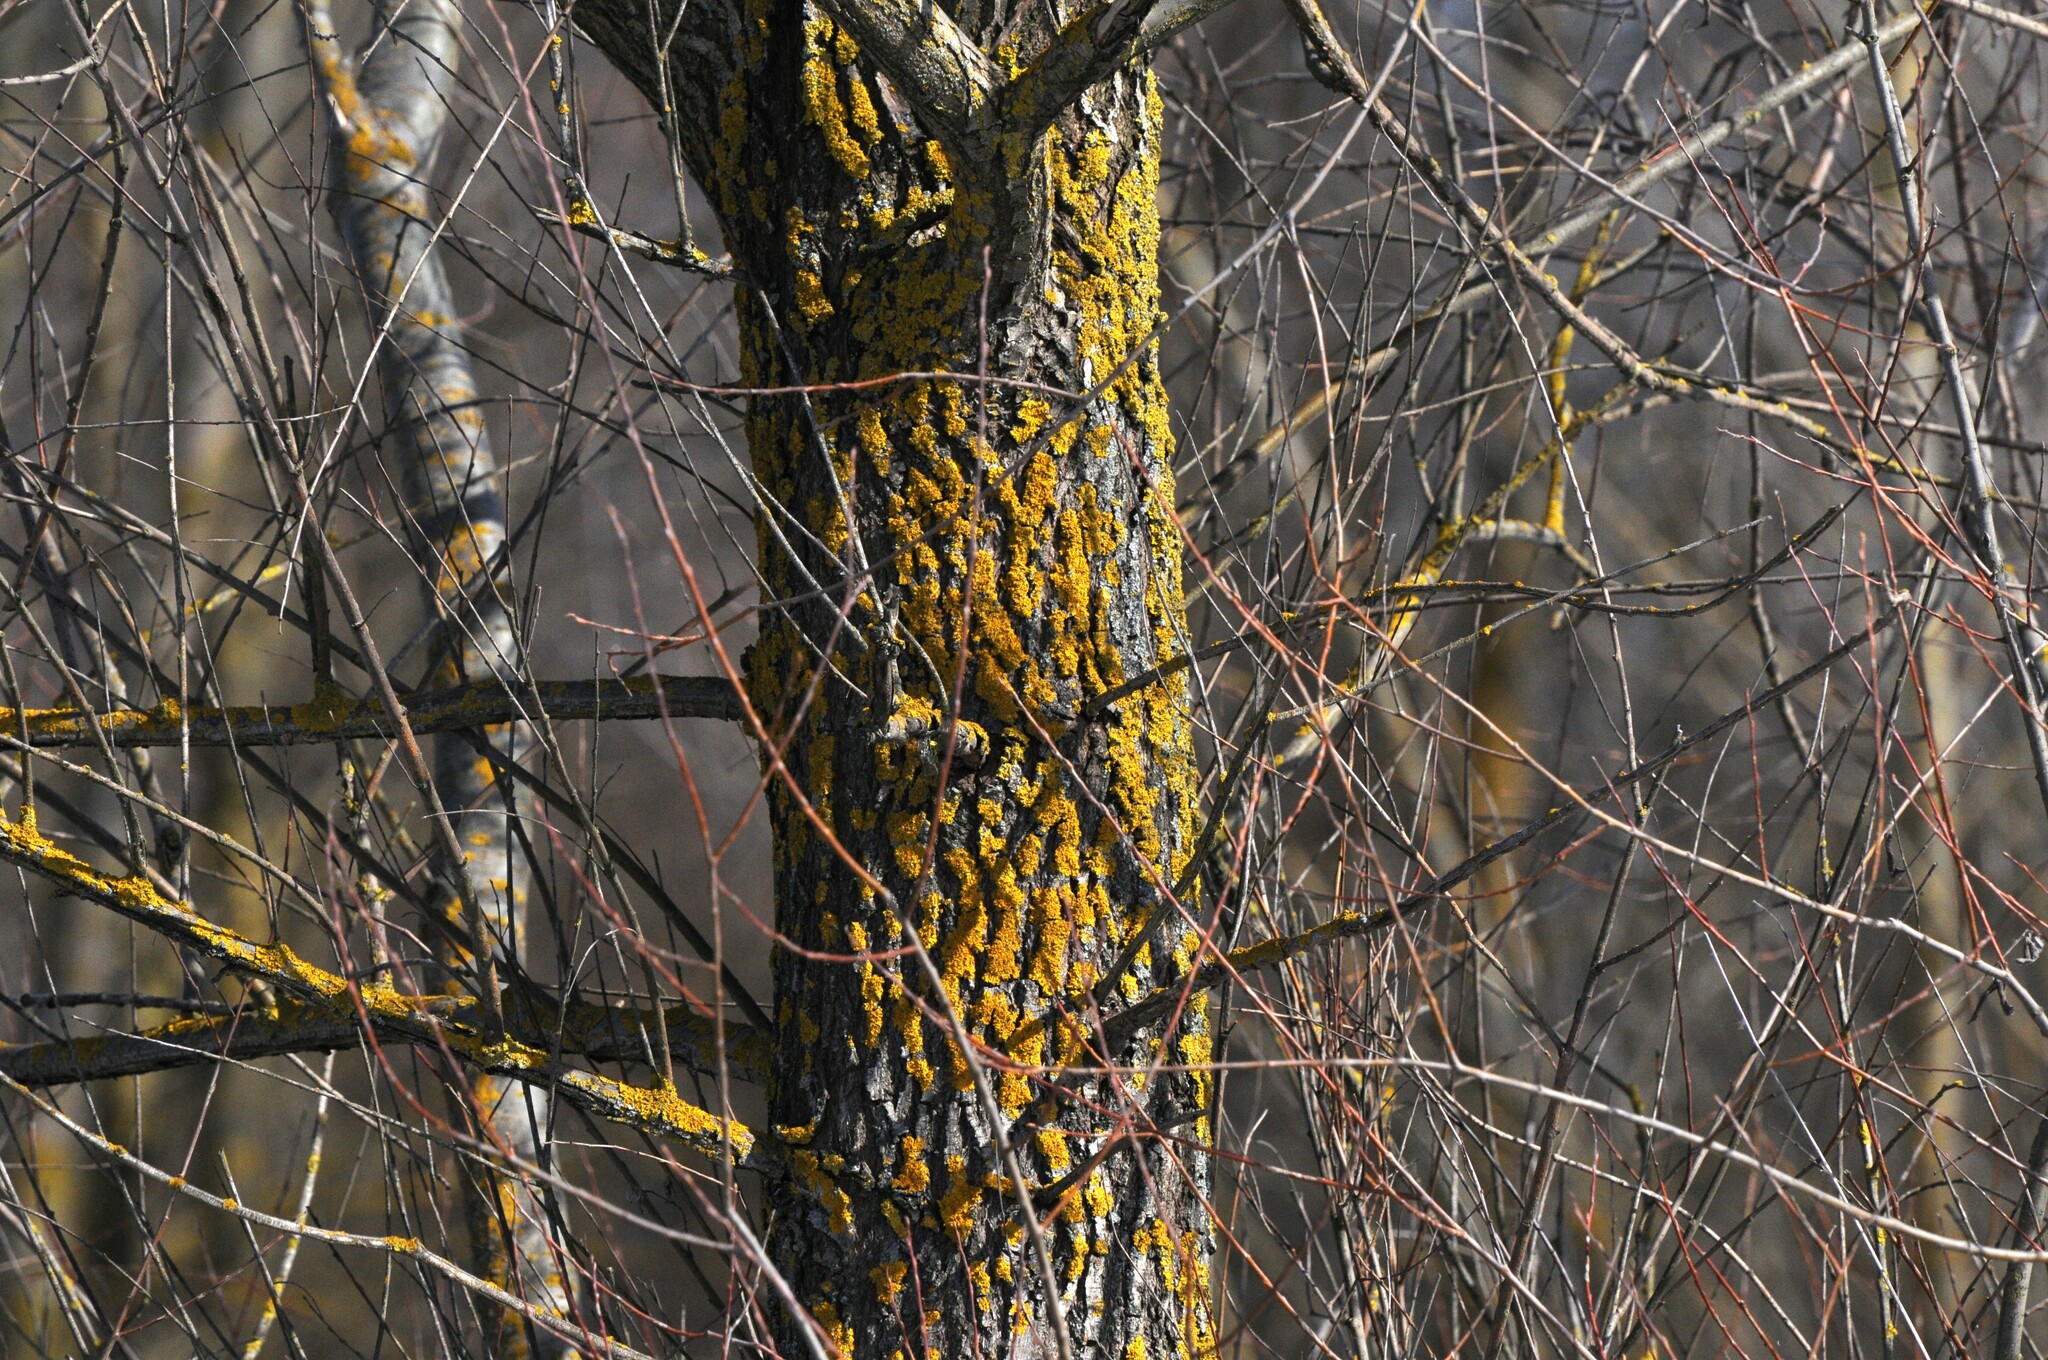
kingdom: Fungi
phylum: Ascomycota
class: Lecanoromycetes
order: Teloschistales
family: Teloschistaceae
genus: Xanthoria
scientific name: Xanthoria parietina
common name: Common orange lichen
